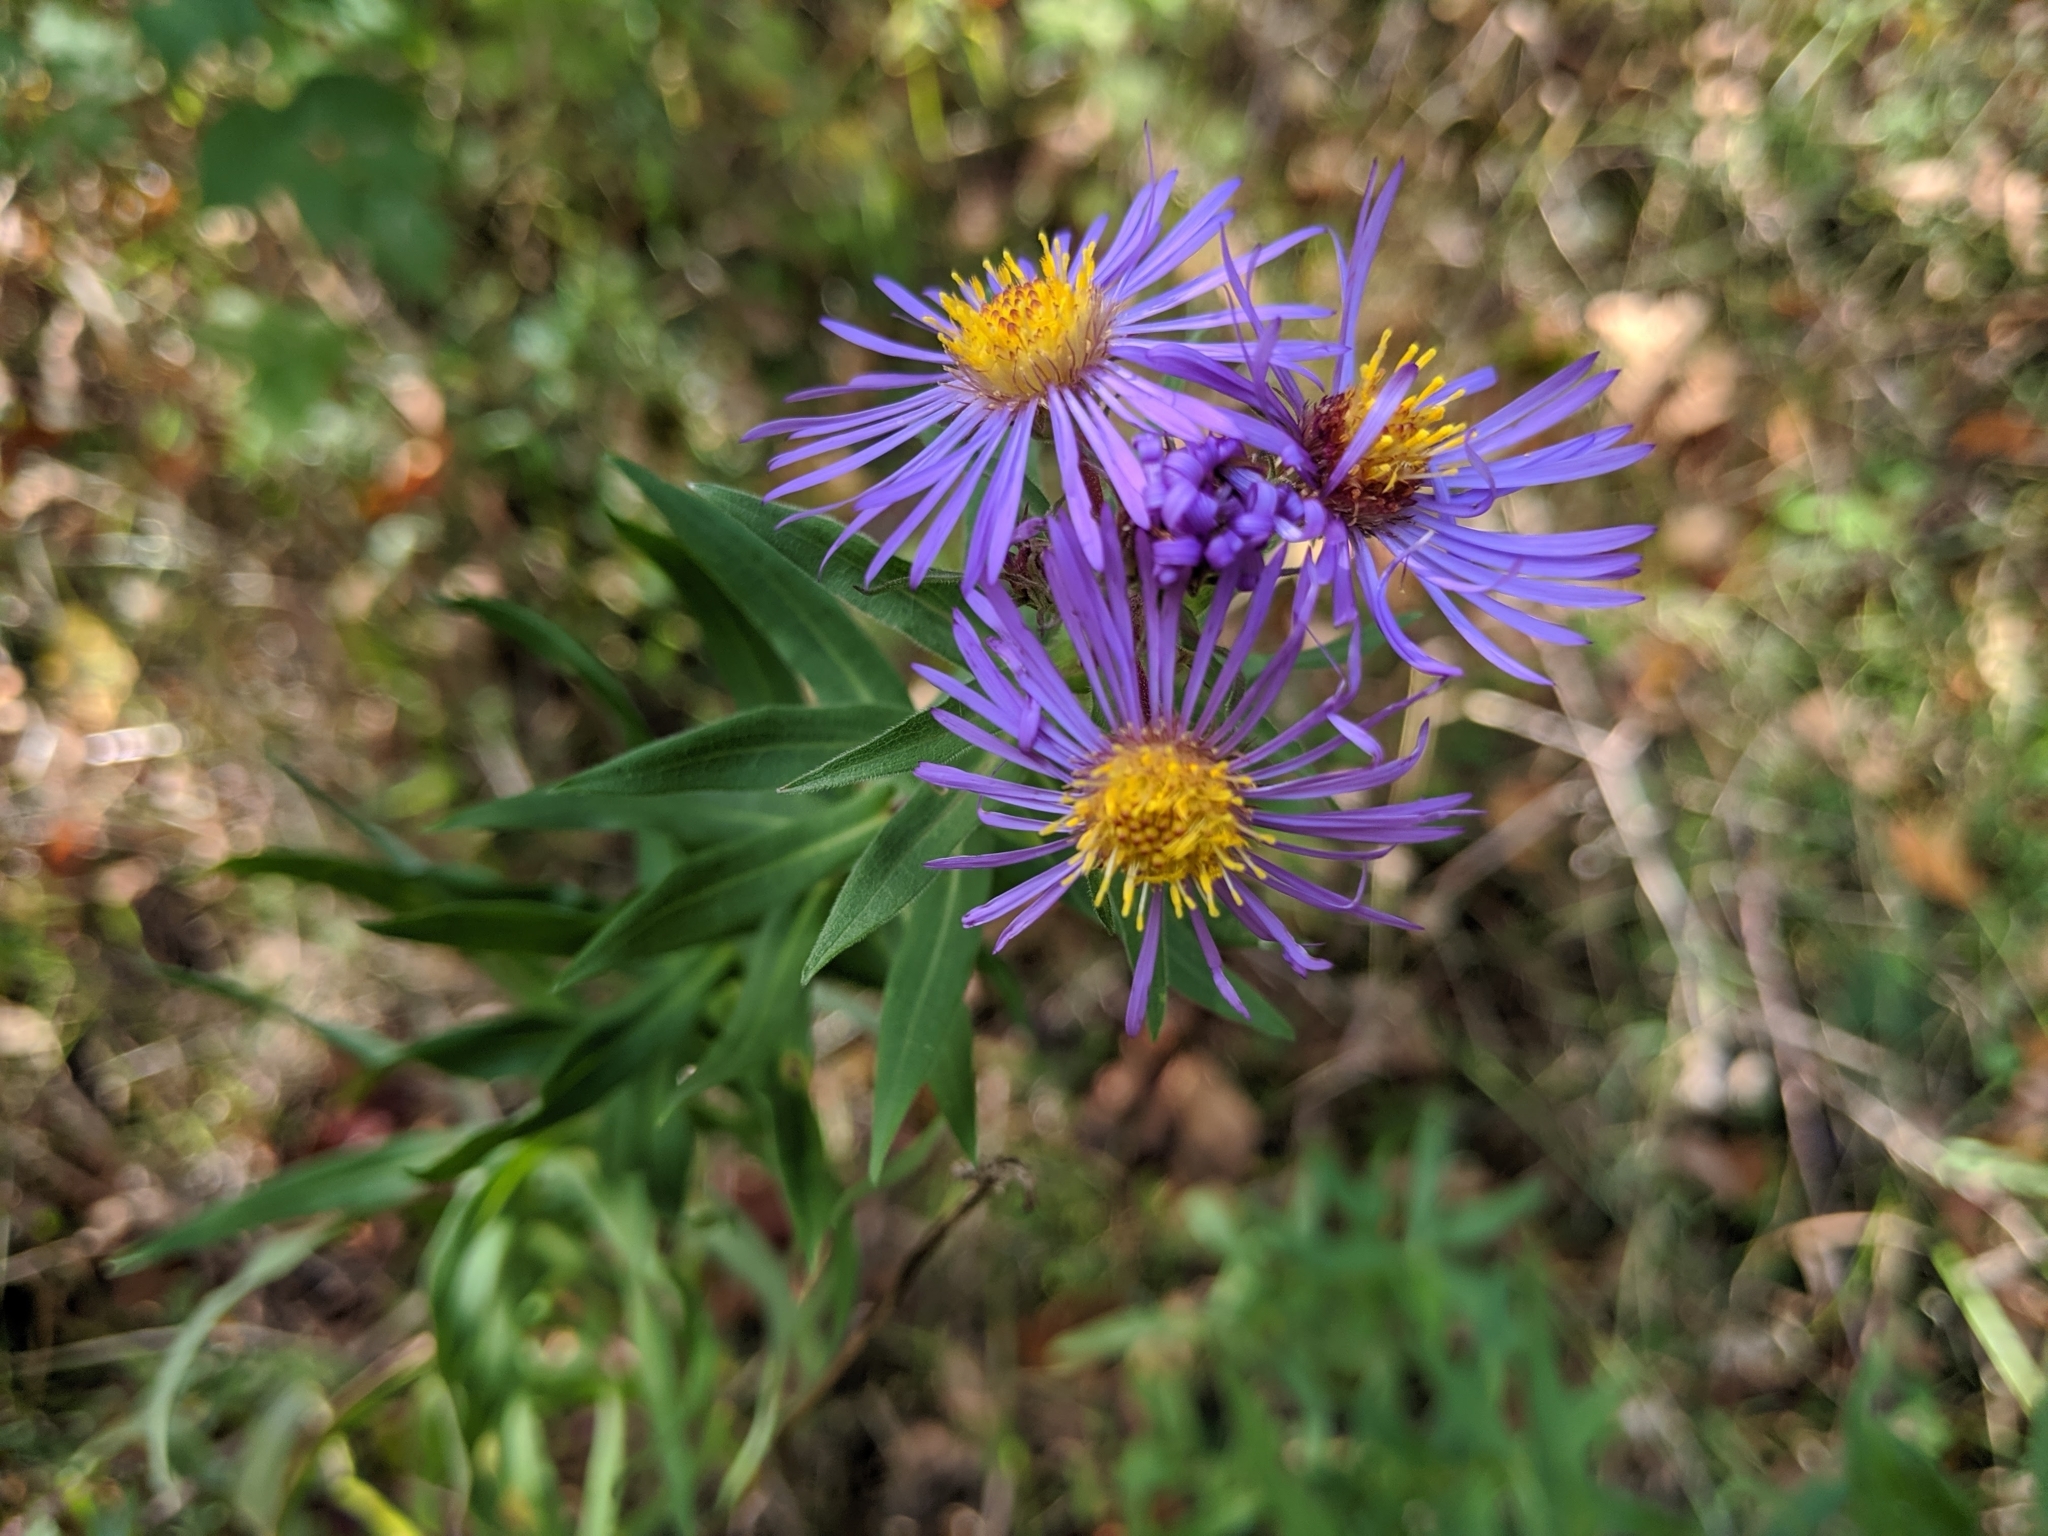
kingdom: Plantae
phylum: Tracheophyta
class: Magnoliopsida
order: Asterales
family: Asteraceae
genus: Symphyotrichum
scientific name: Symphyotrichum novae-angliae
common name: Michaelmas daisy
